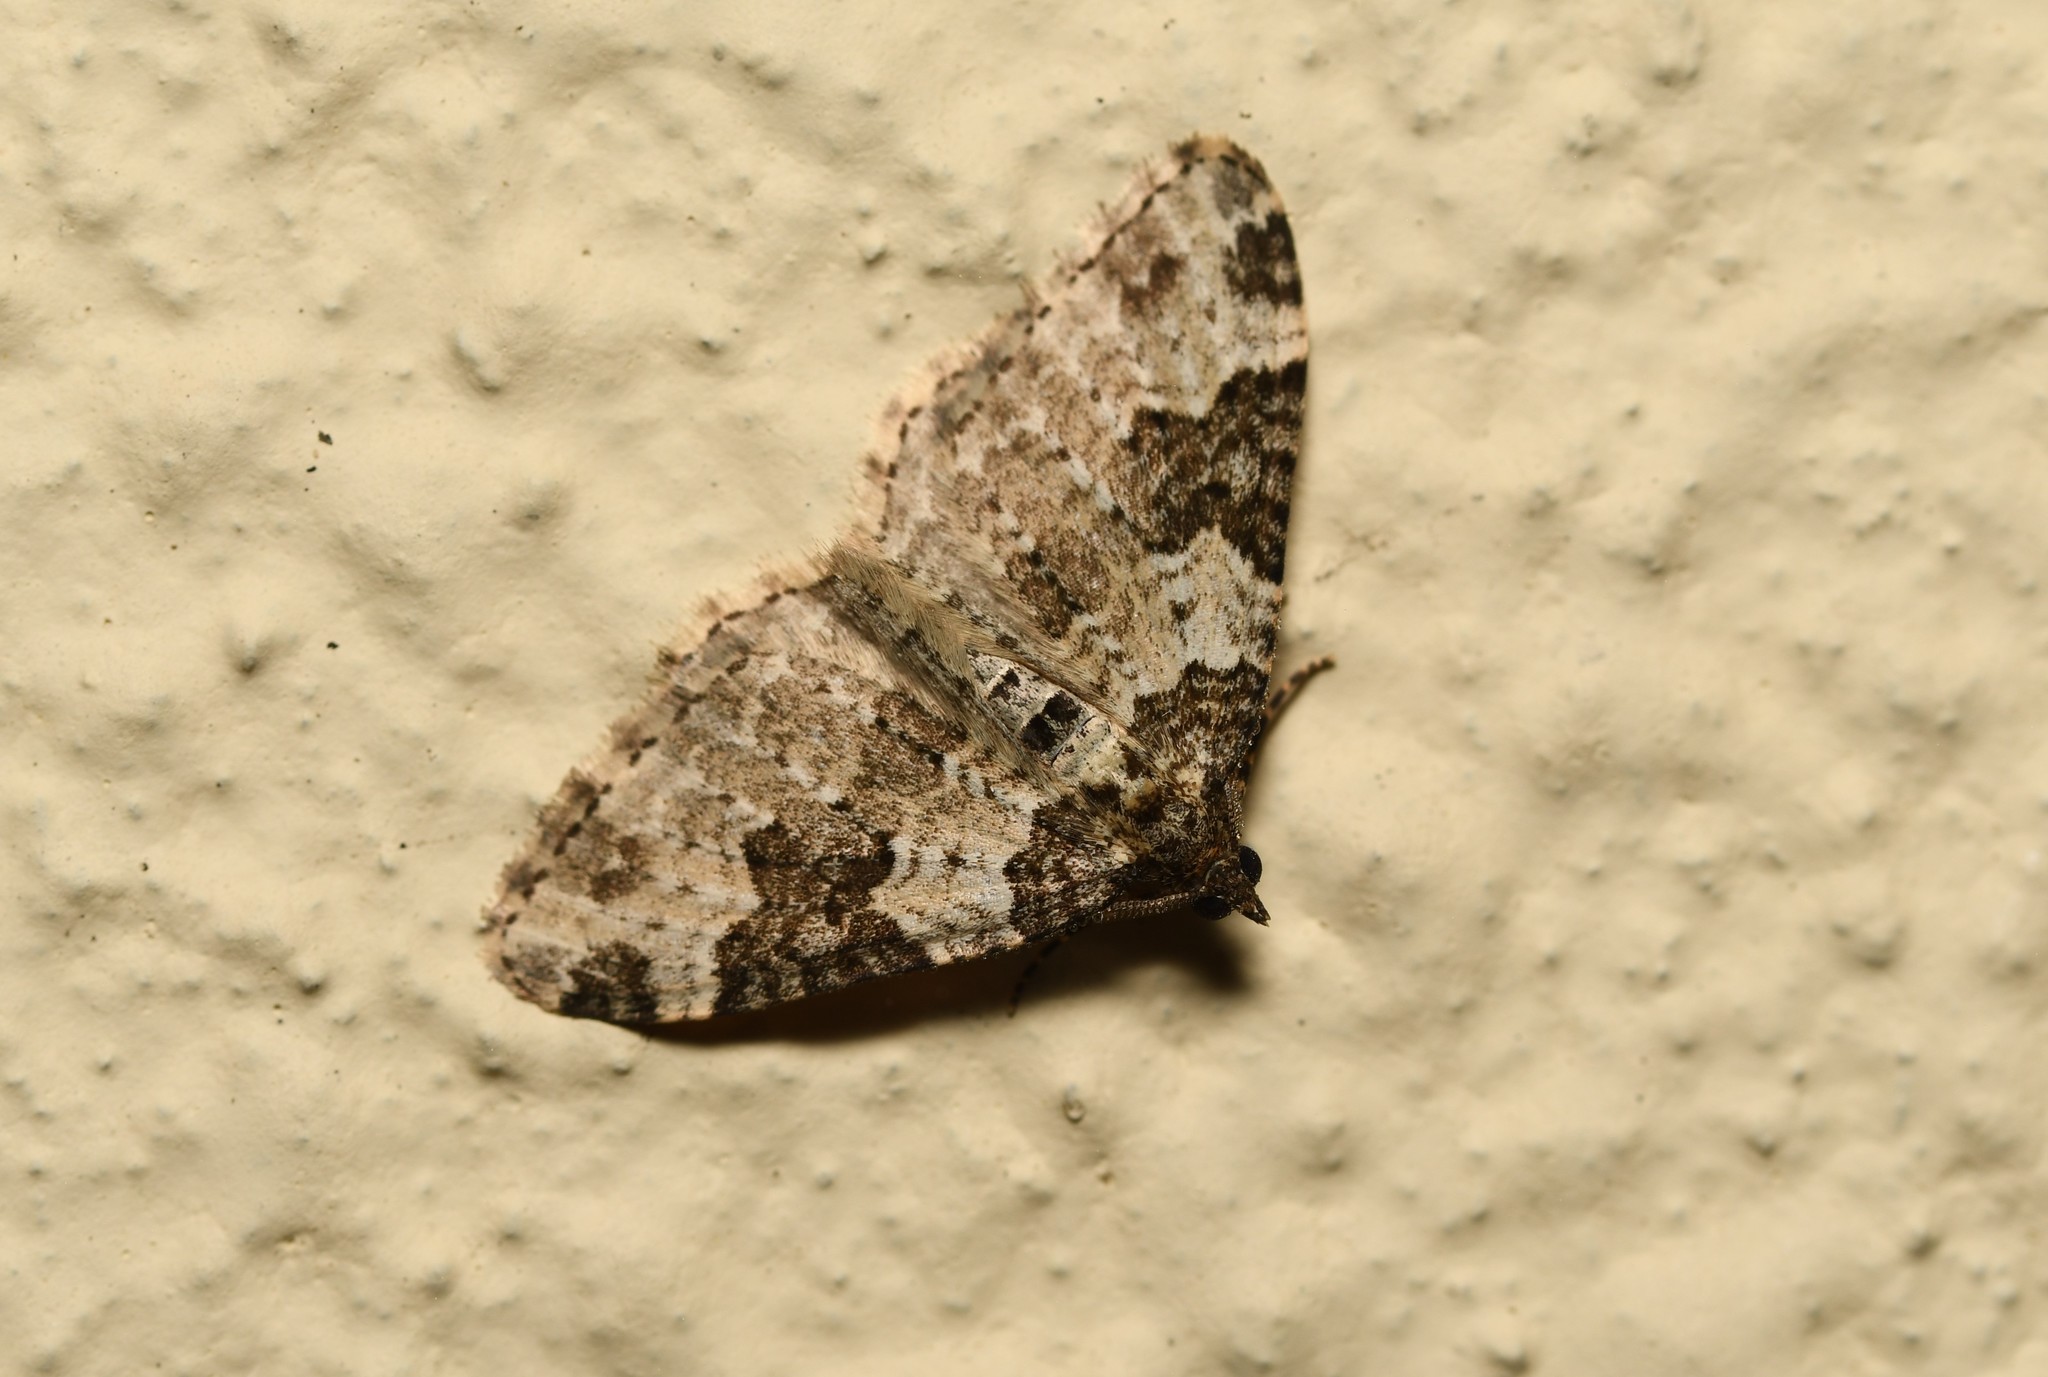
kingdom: Animalia
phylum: Arthropoda
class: Insecta
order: Lepidoptera
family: Geometridae
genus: Xanthorhoe
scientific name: Xanthorhoe fluctuata
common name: Garden carpet
